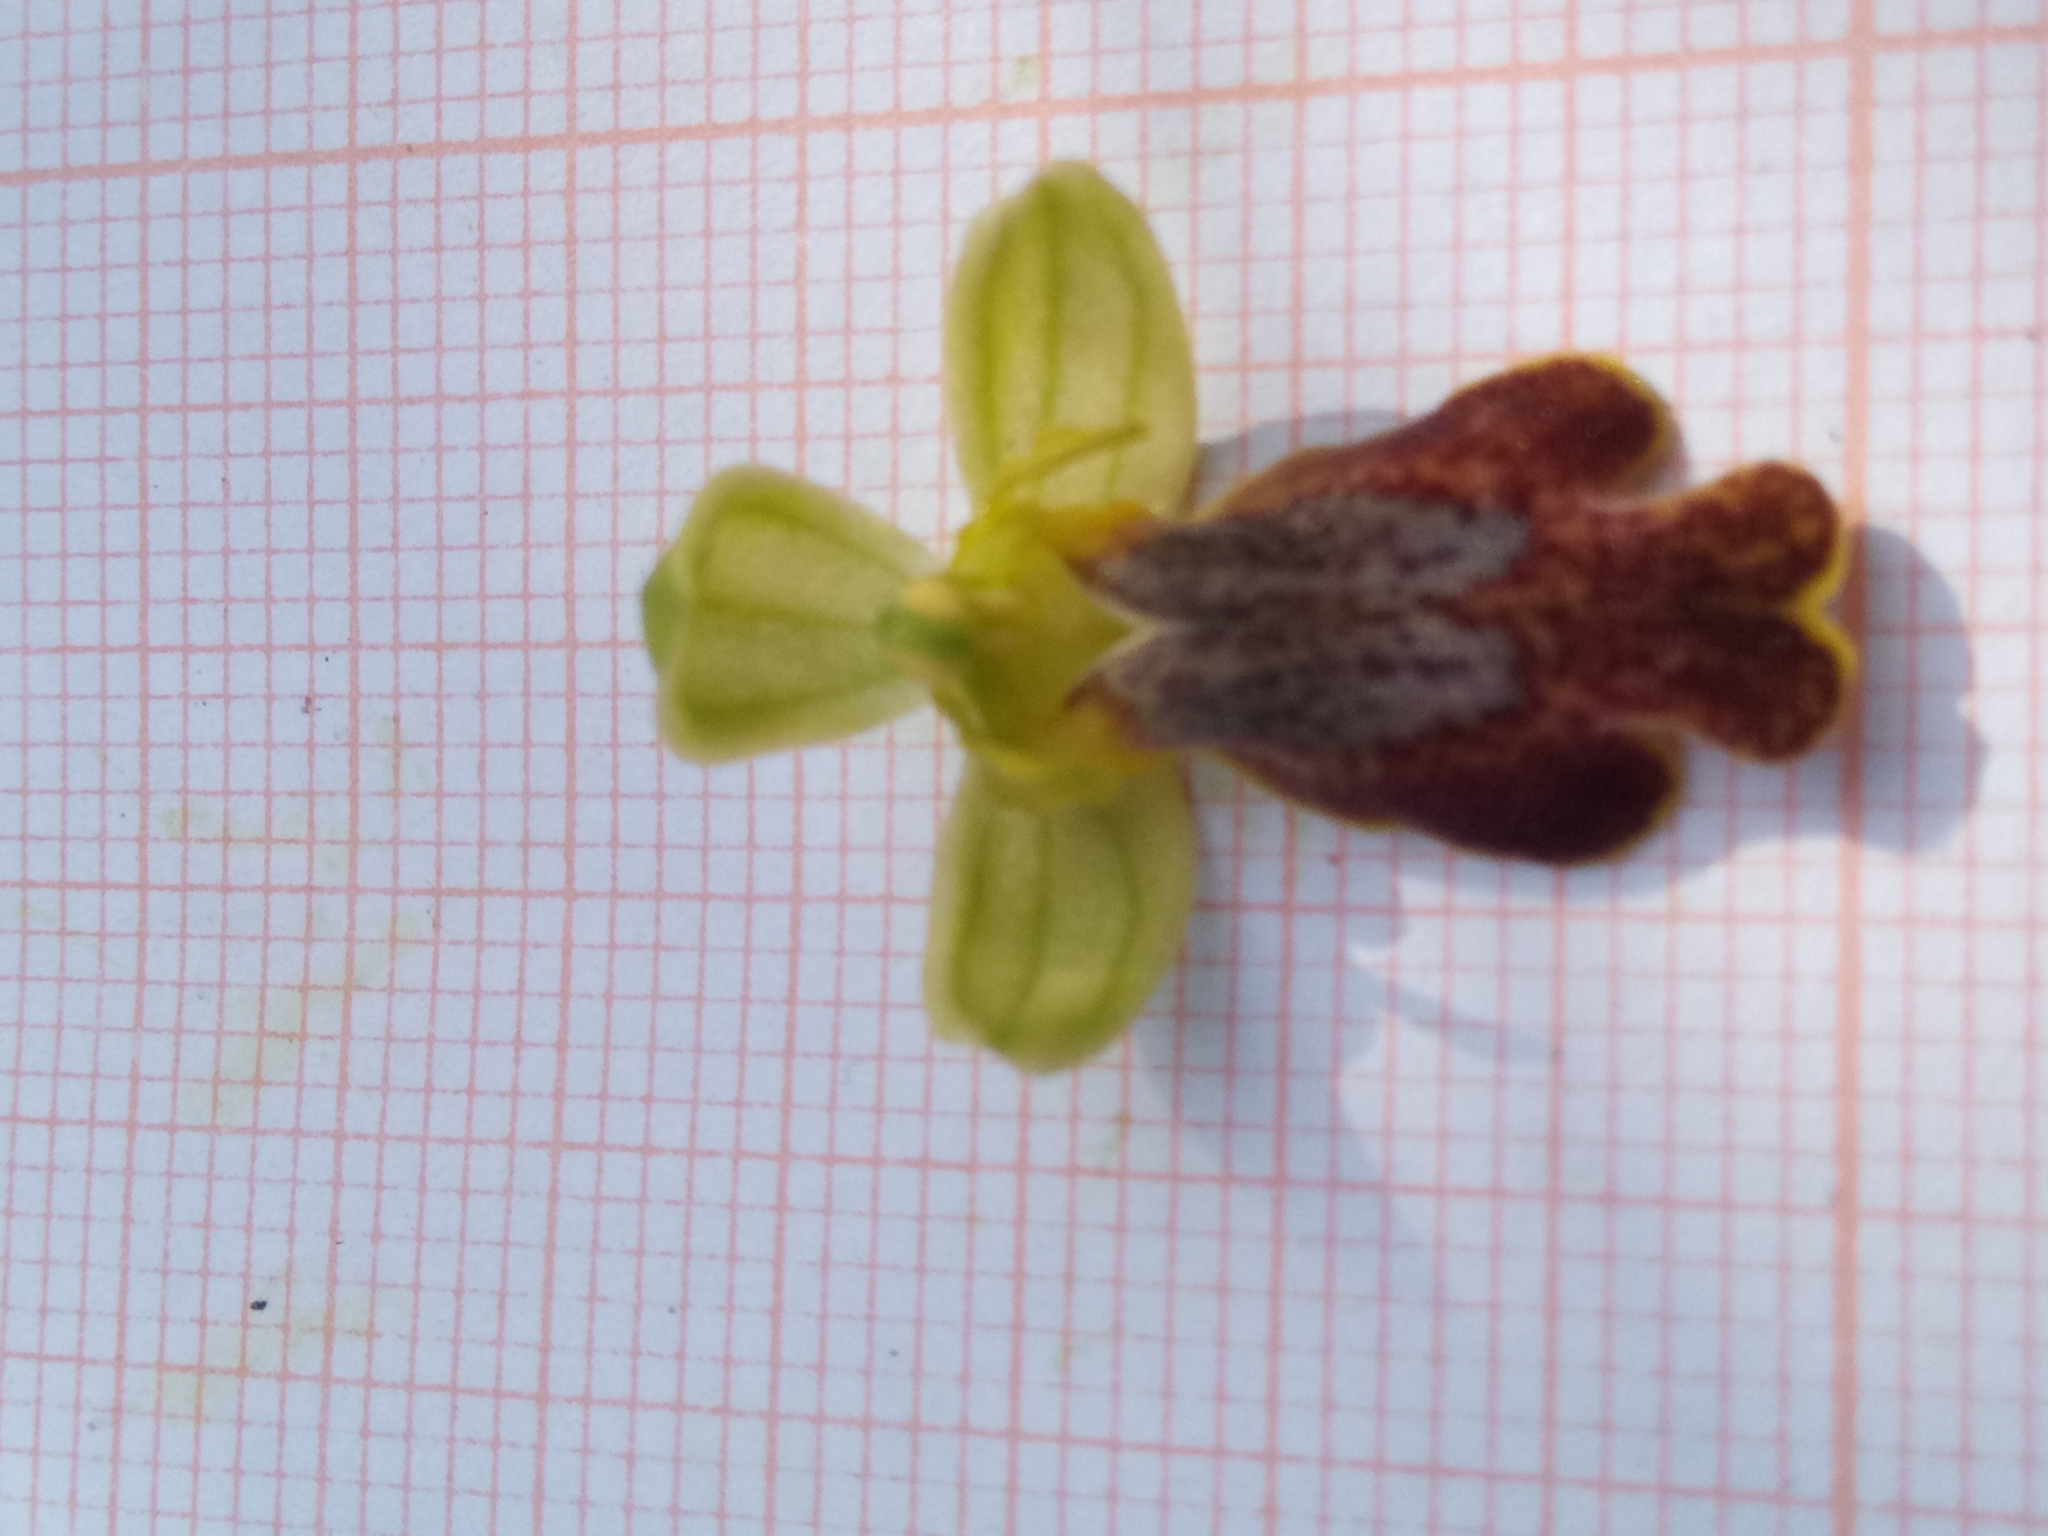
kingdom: Plantae
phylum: Tracheophyta
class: Liliopsida
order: Asparagales
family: Orchidaceae
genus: Ophrys
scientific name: Ophrys fusca
